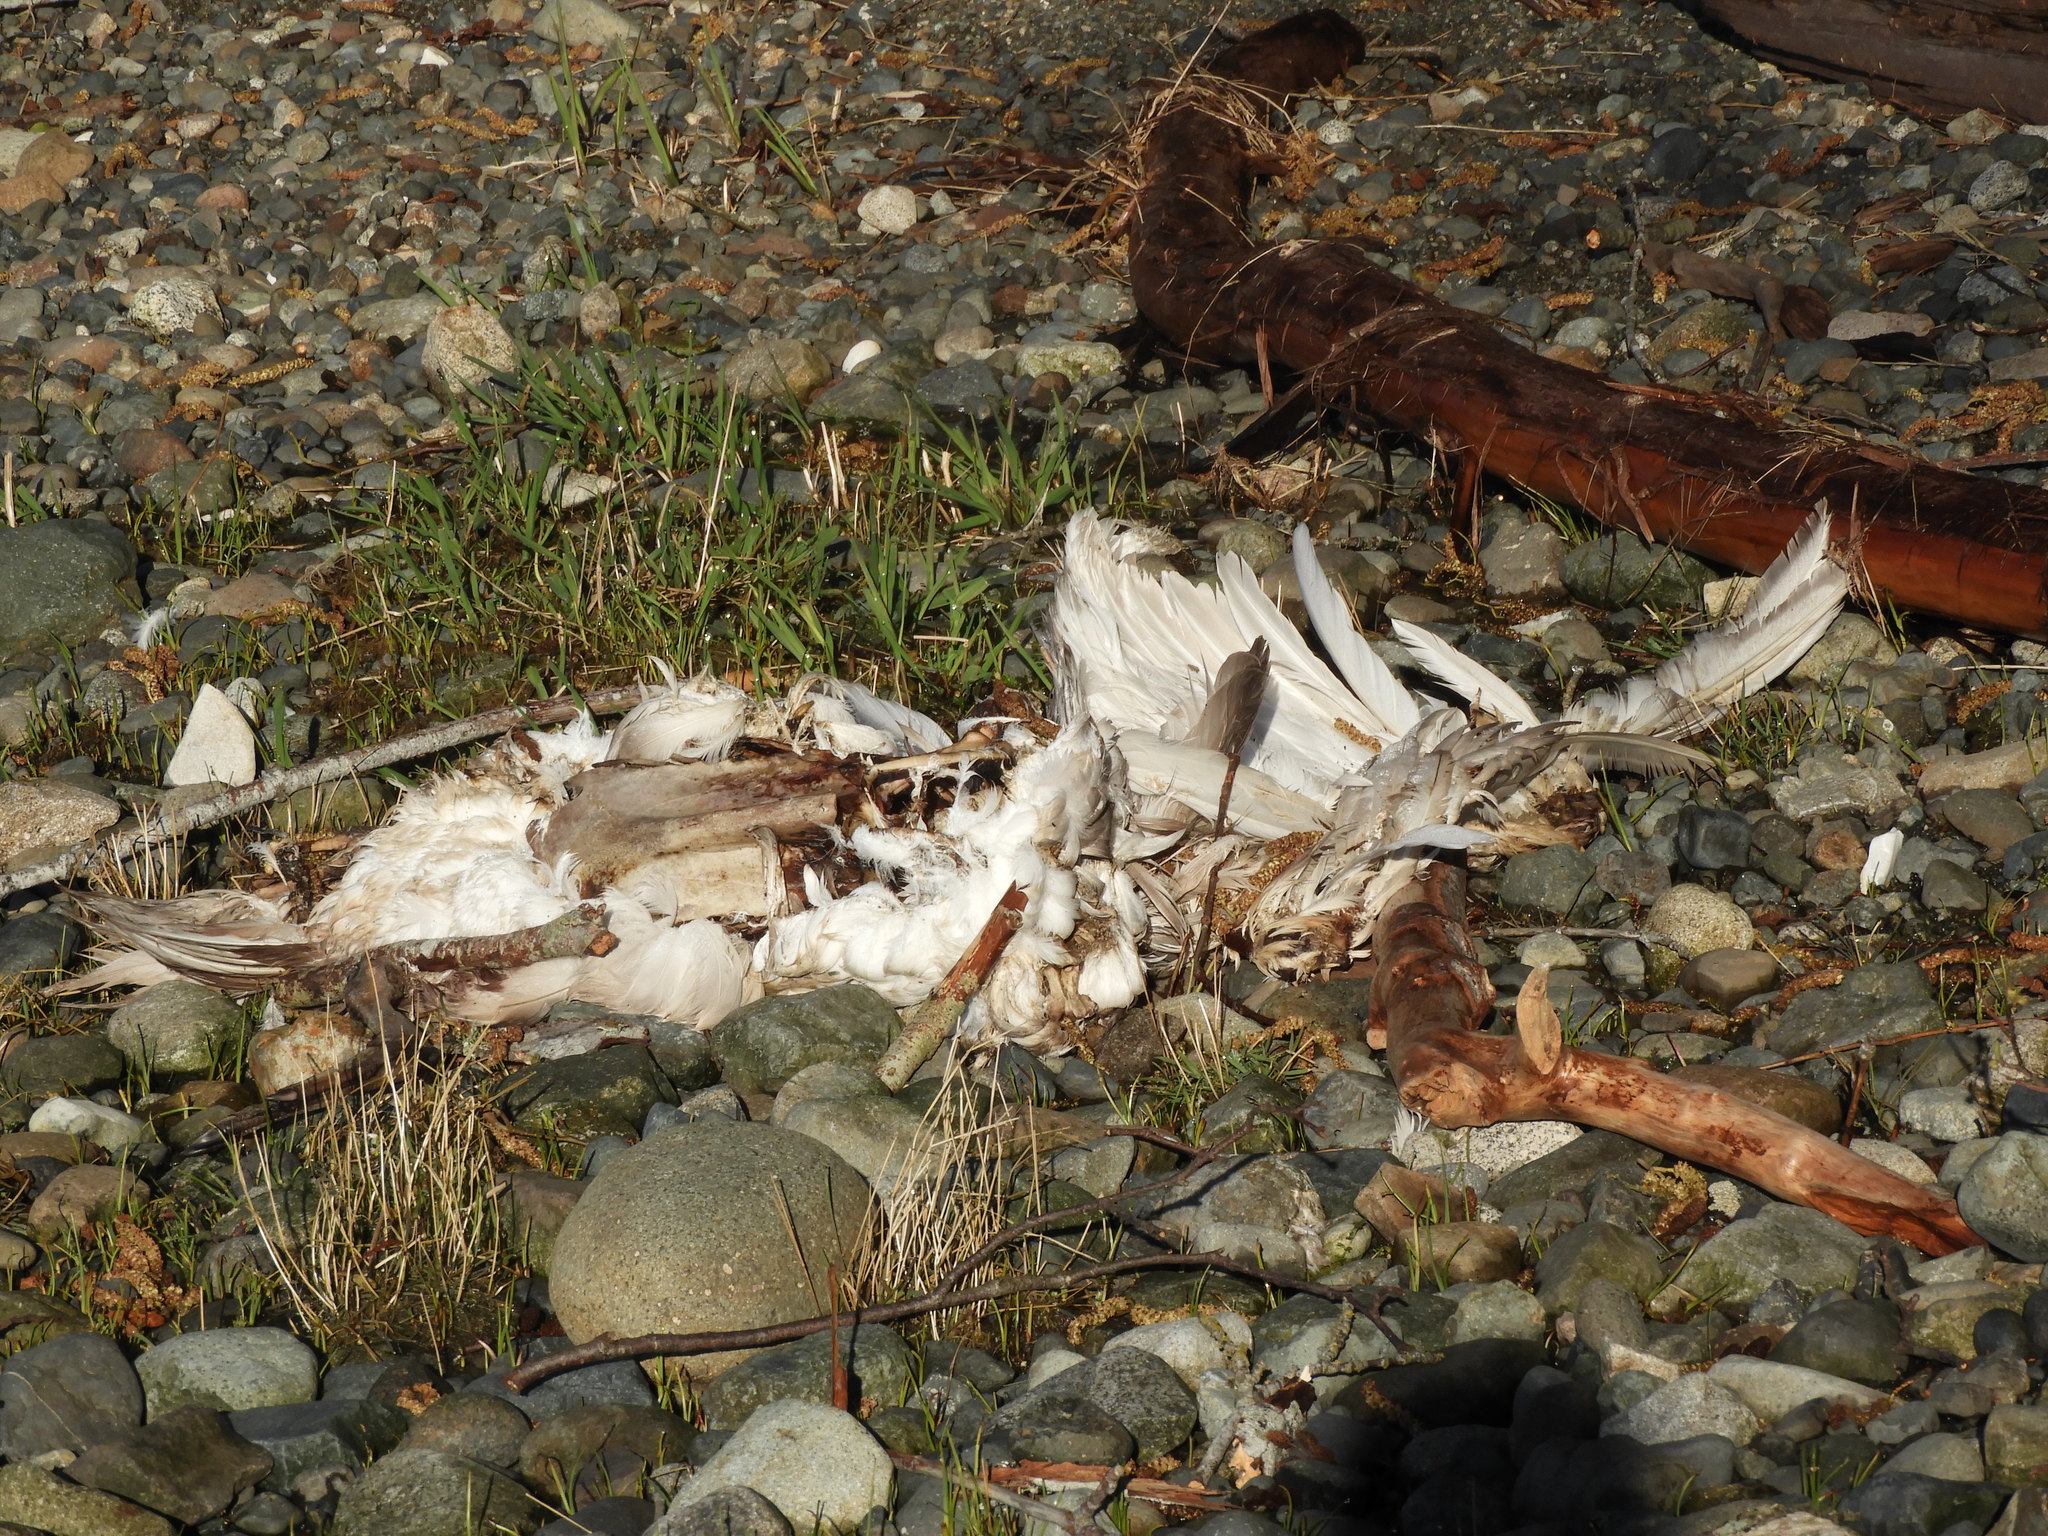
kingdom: Animalia
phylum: Chordata
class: Aves
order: Anseriformes
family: Anatidae
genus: Cygnus
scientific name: Cygnus buccinator
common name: Trumpeter swan
